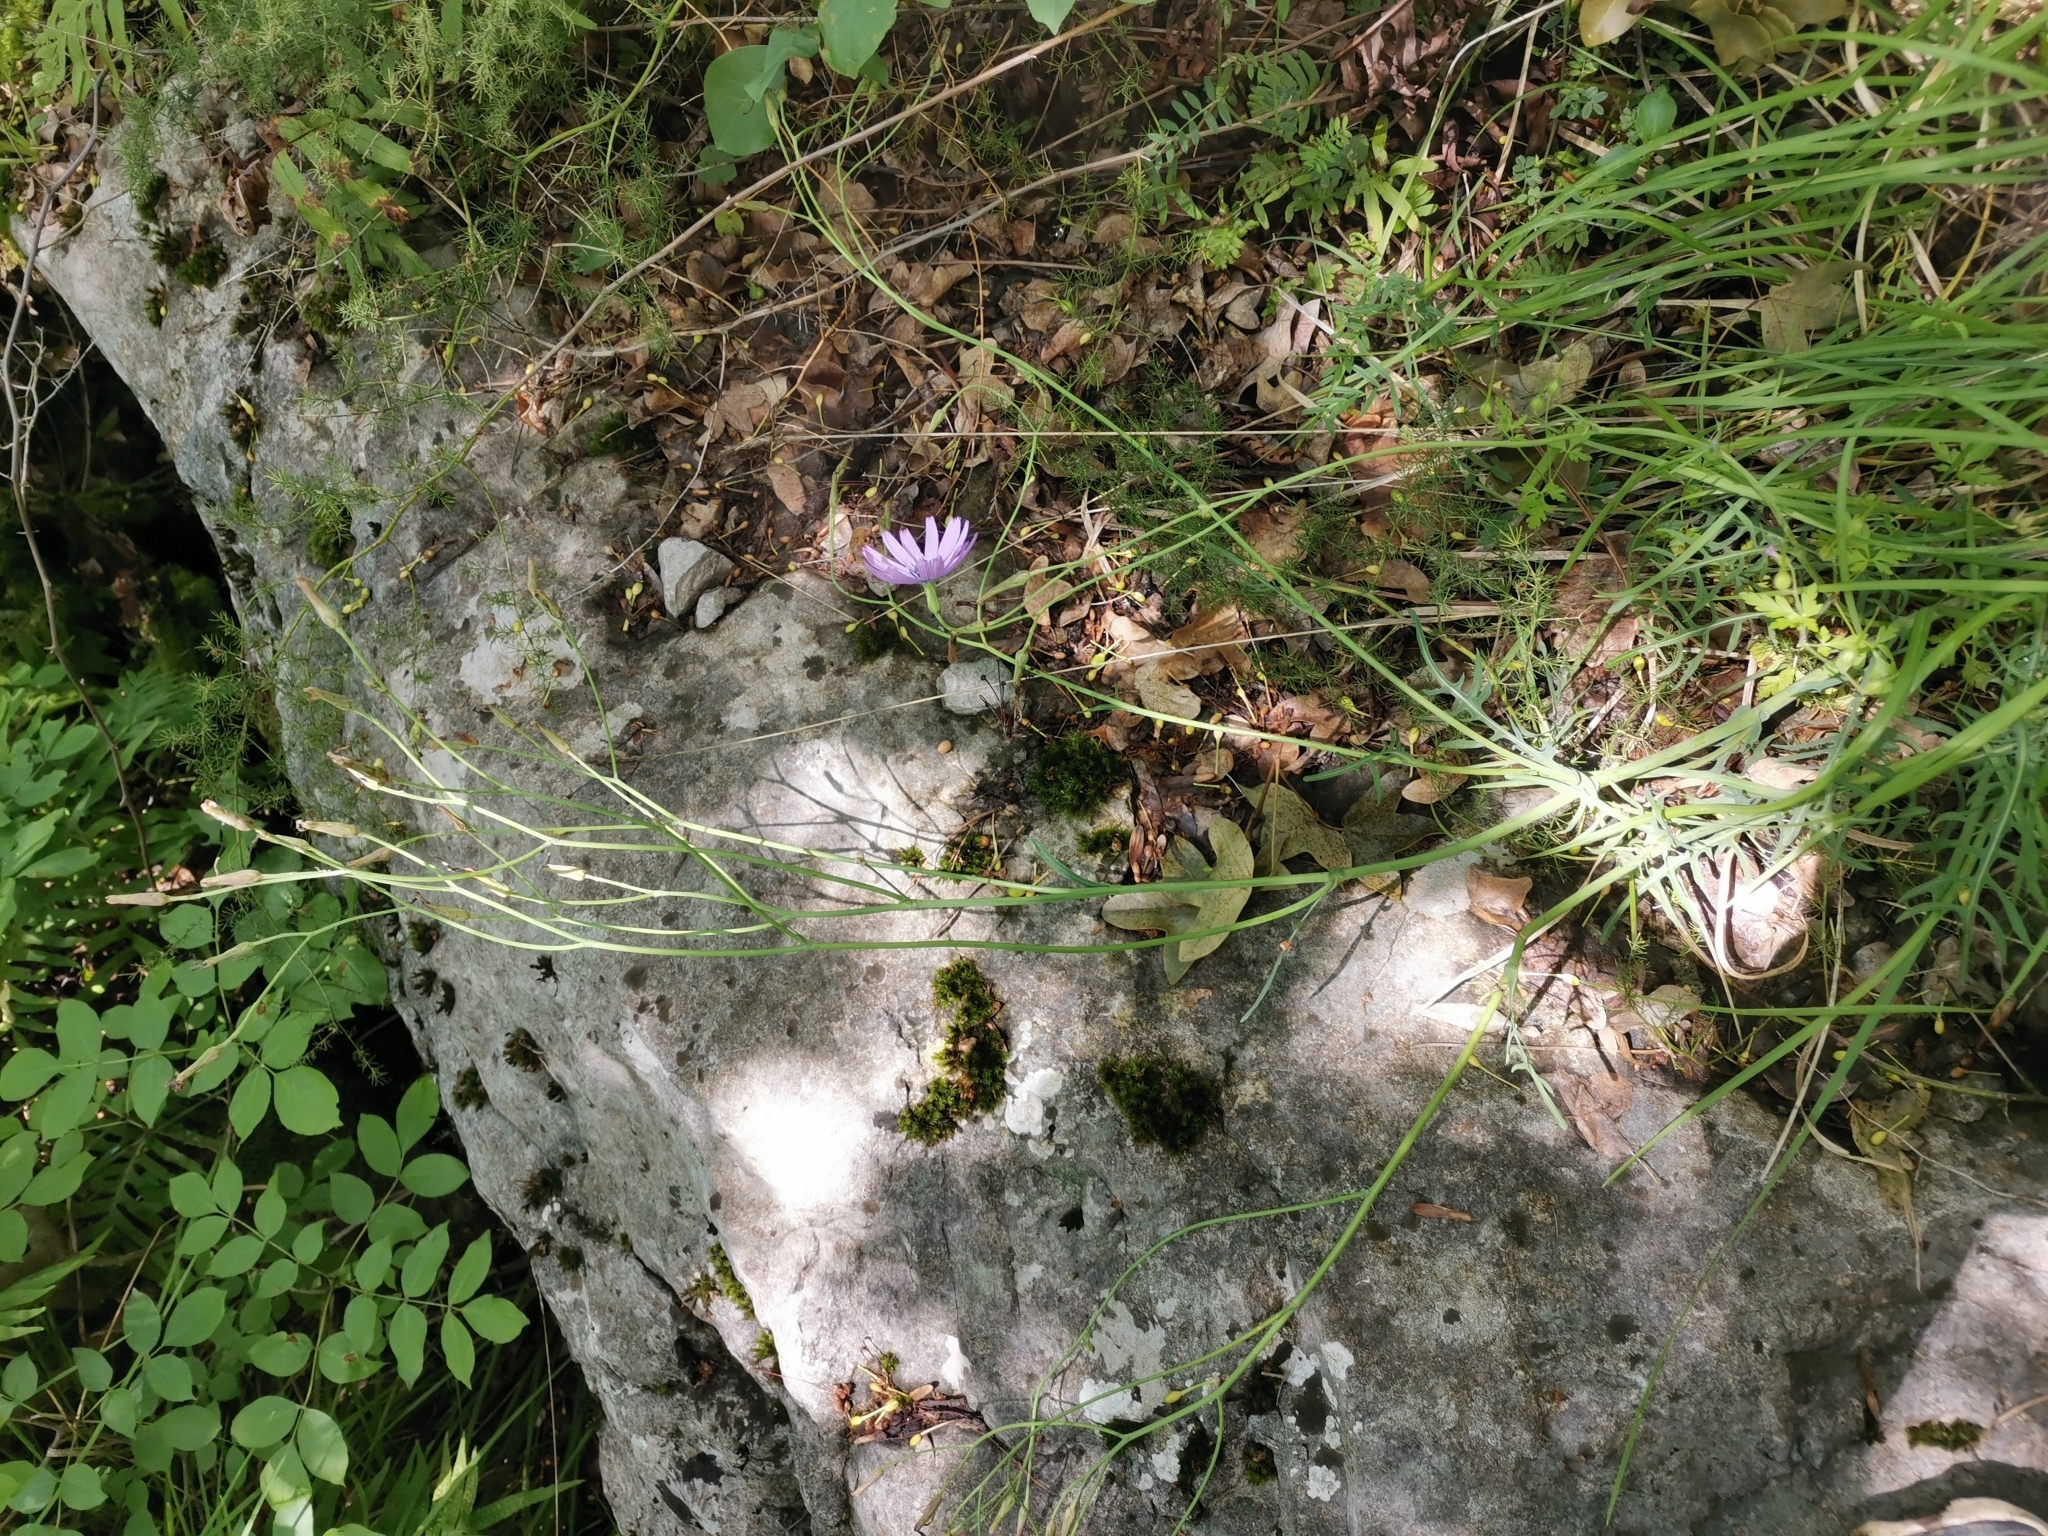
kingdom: Plantae
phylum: Tracheophyta
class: Magnoliopsida
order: Asterales
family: Asteraceae
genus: Lactuca
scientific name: Lactuca perennis
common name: Mountain lettuce
